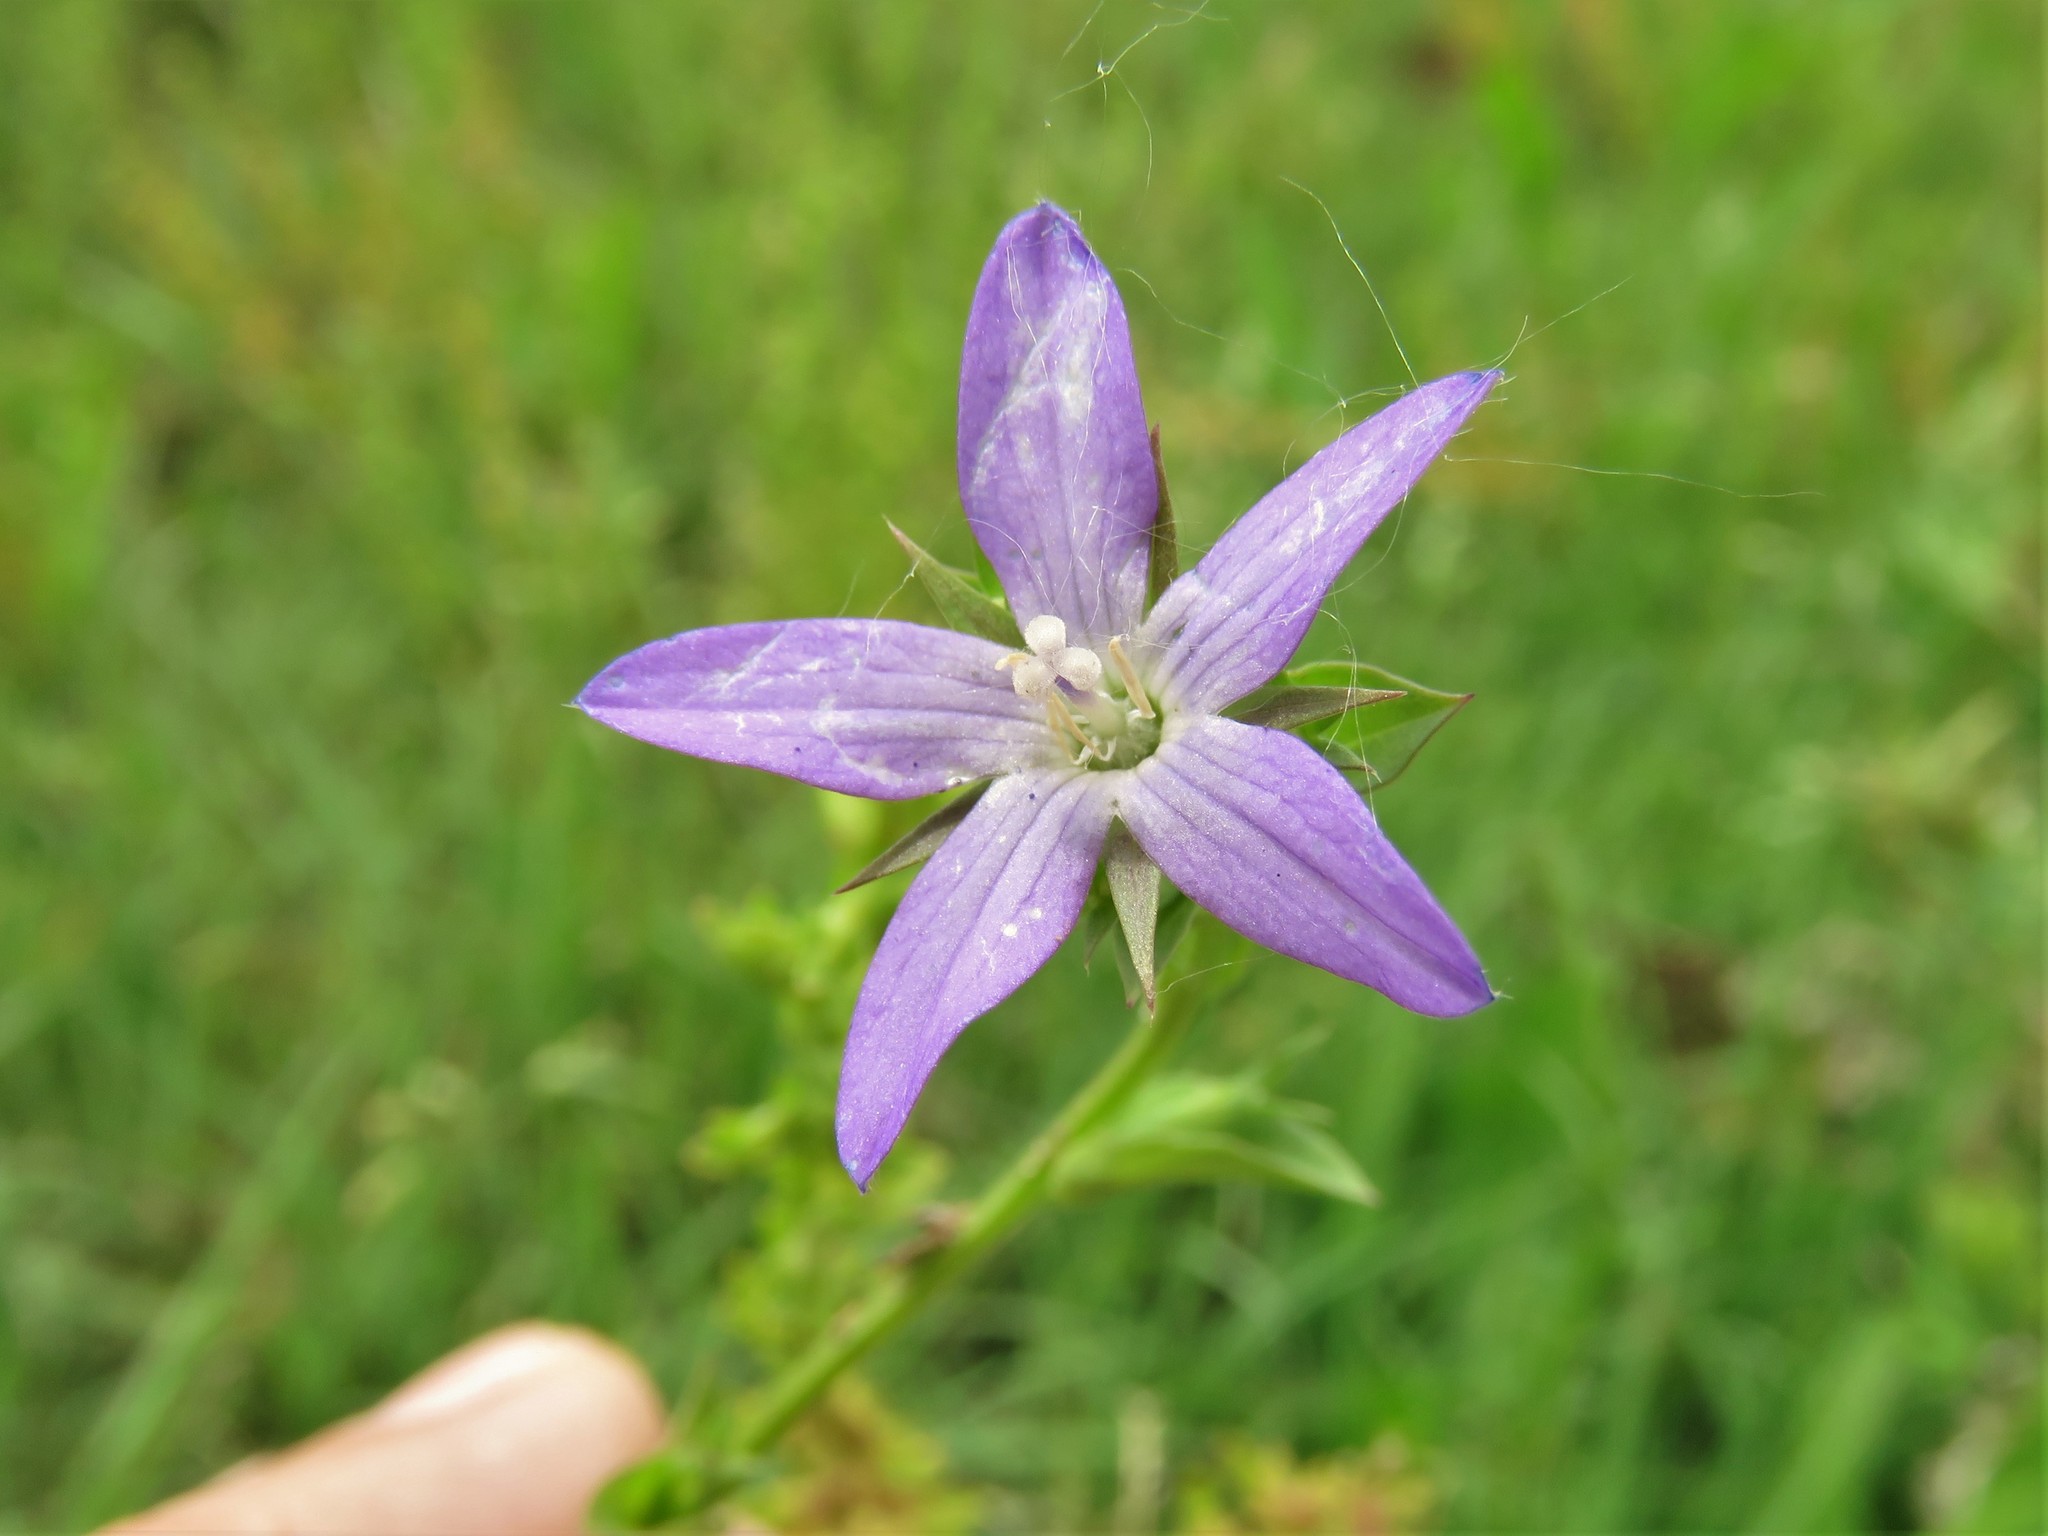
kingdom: Plantae
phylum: Tracheophyta
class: Magnoliopsida
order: Asterales
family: Campanulaceae
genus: Triodanis
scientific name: Triodanis biflora
